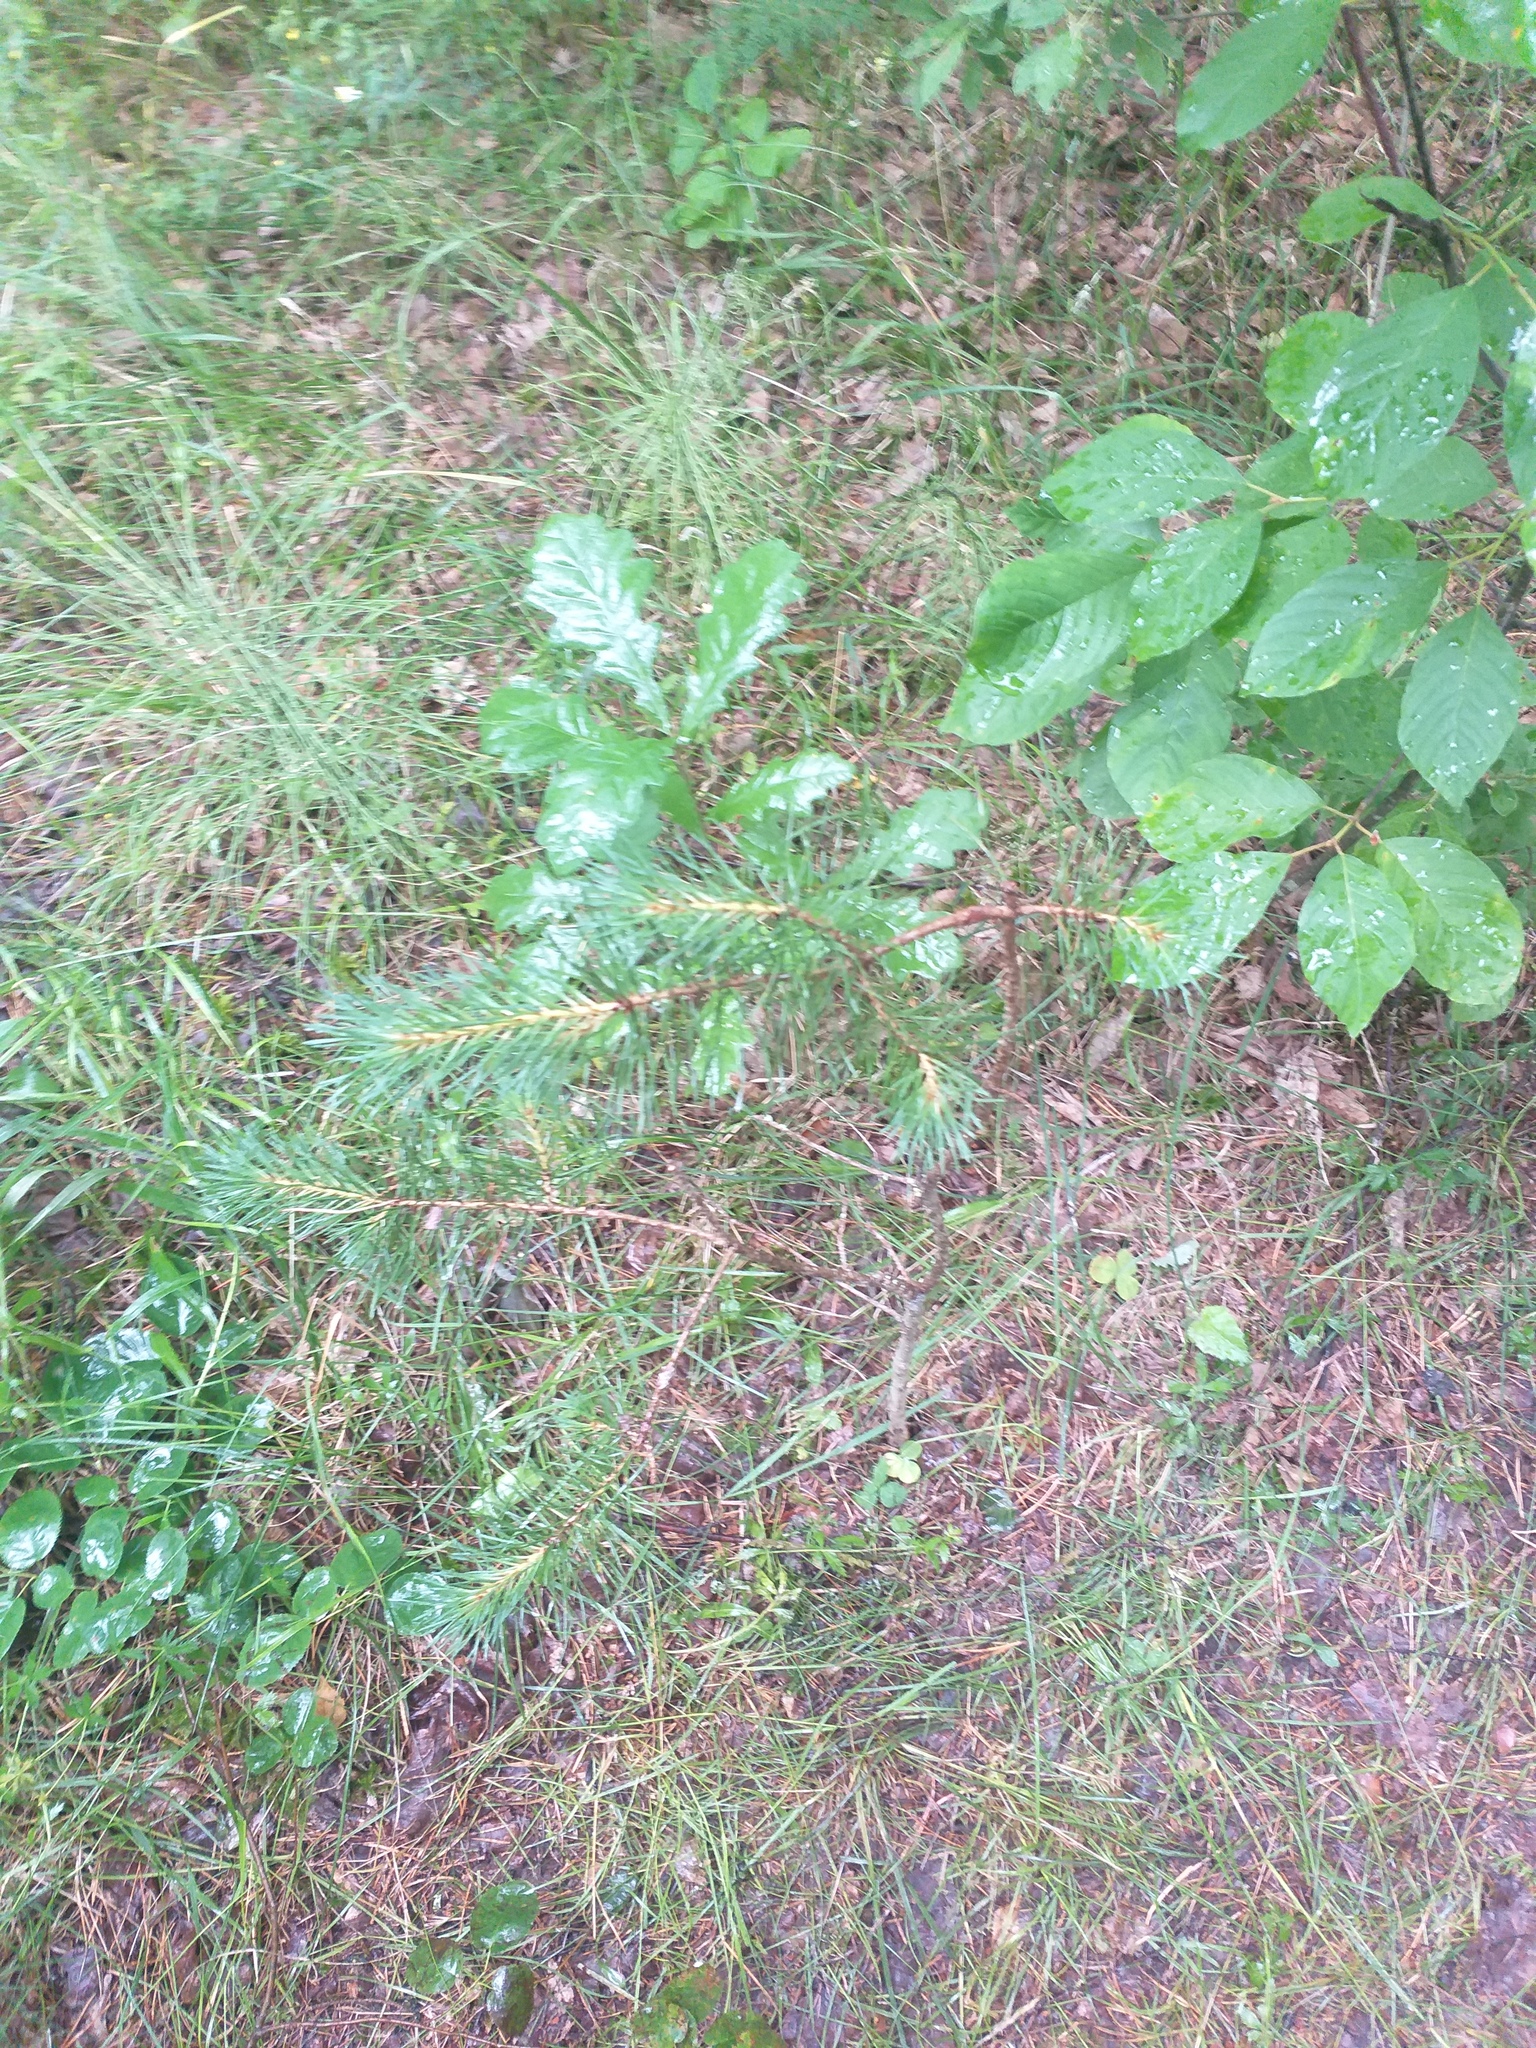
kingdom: Plantae
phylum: Tracheophyta
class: Pinopsida
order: Pinales
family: Pinaceae
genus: Pinus
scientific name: Pinus sylvestris
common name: Scots pine
